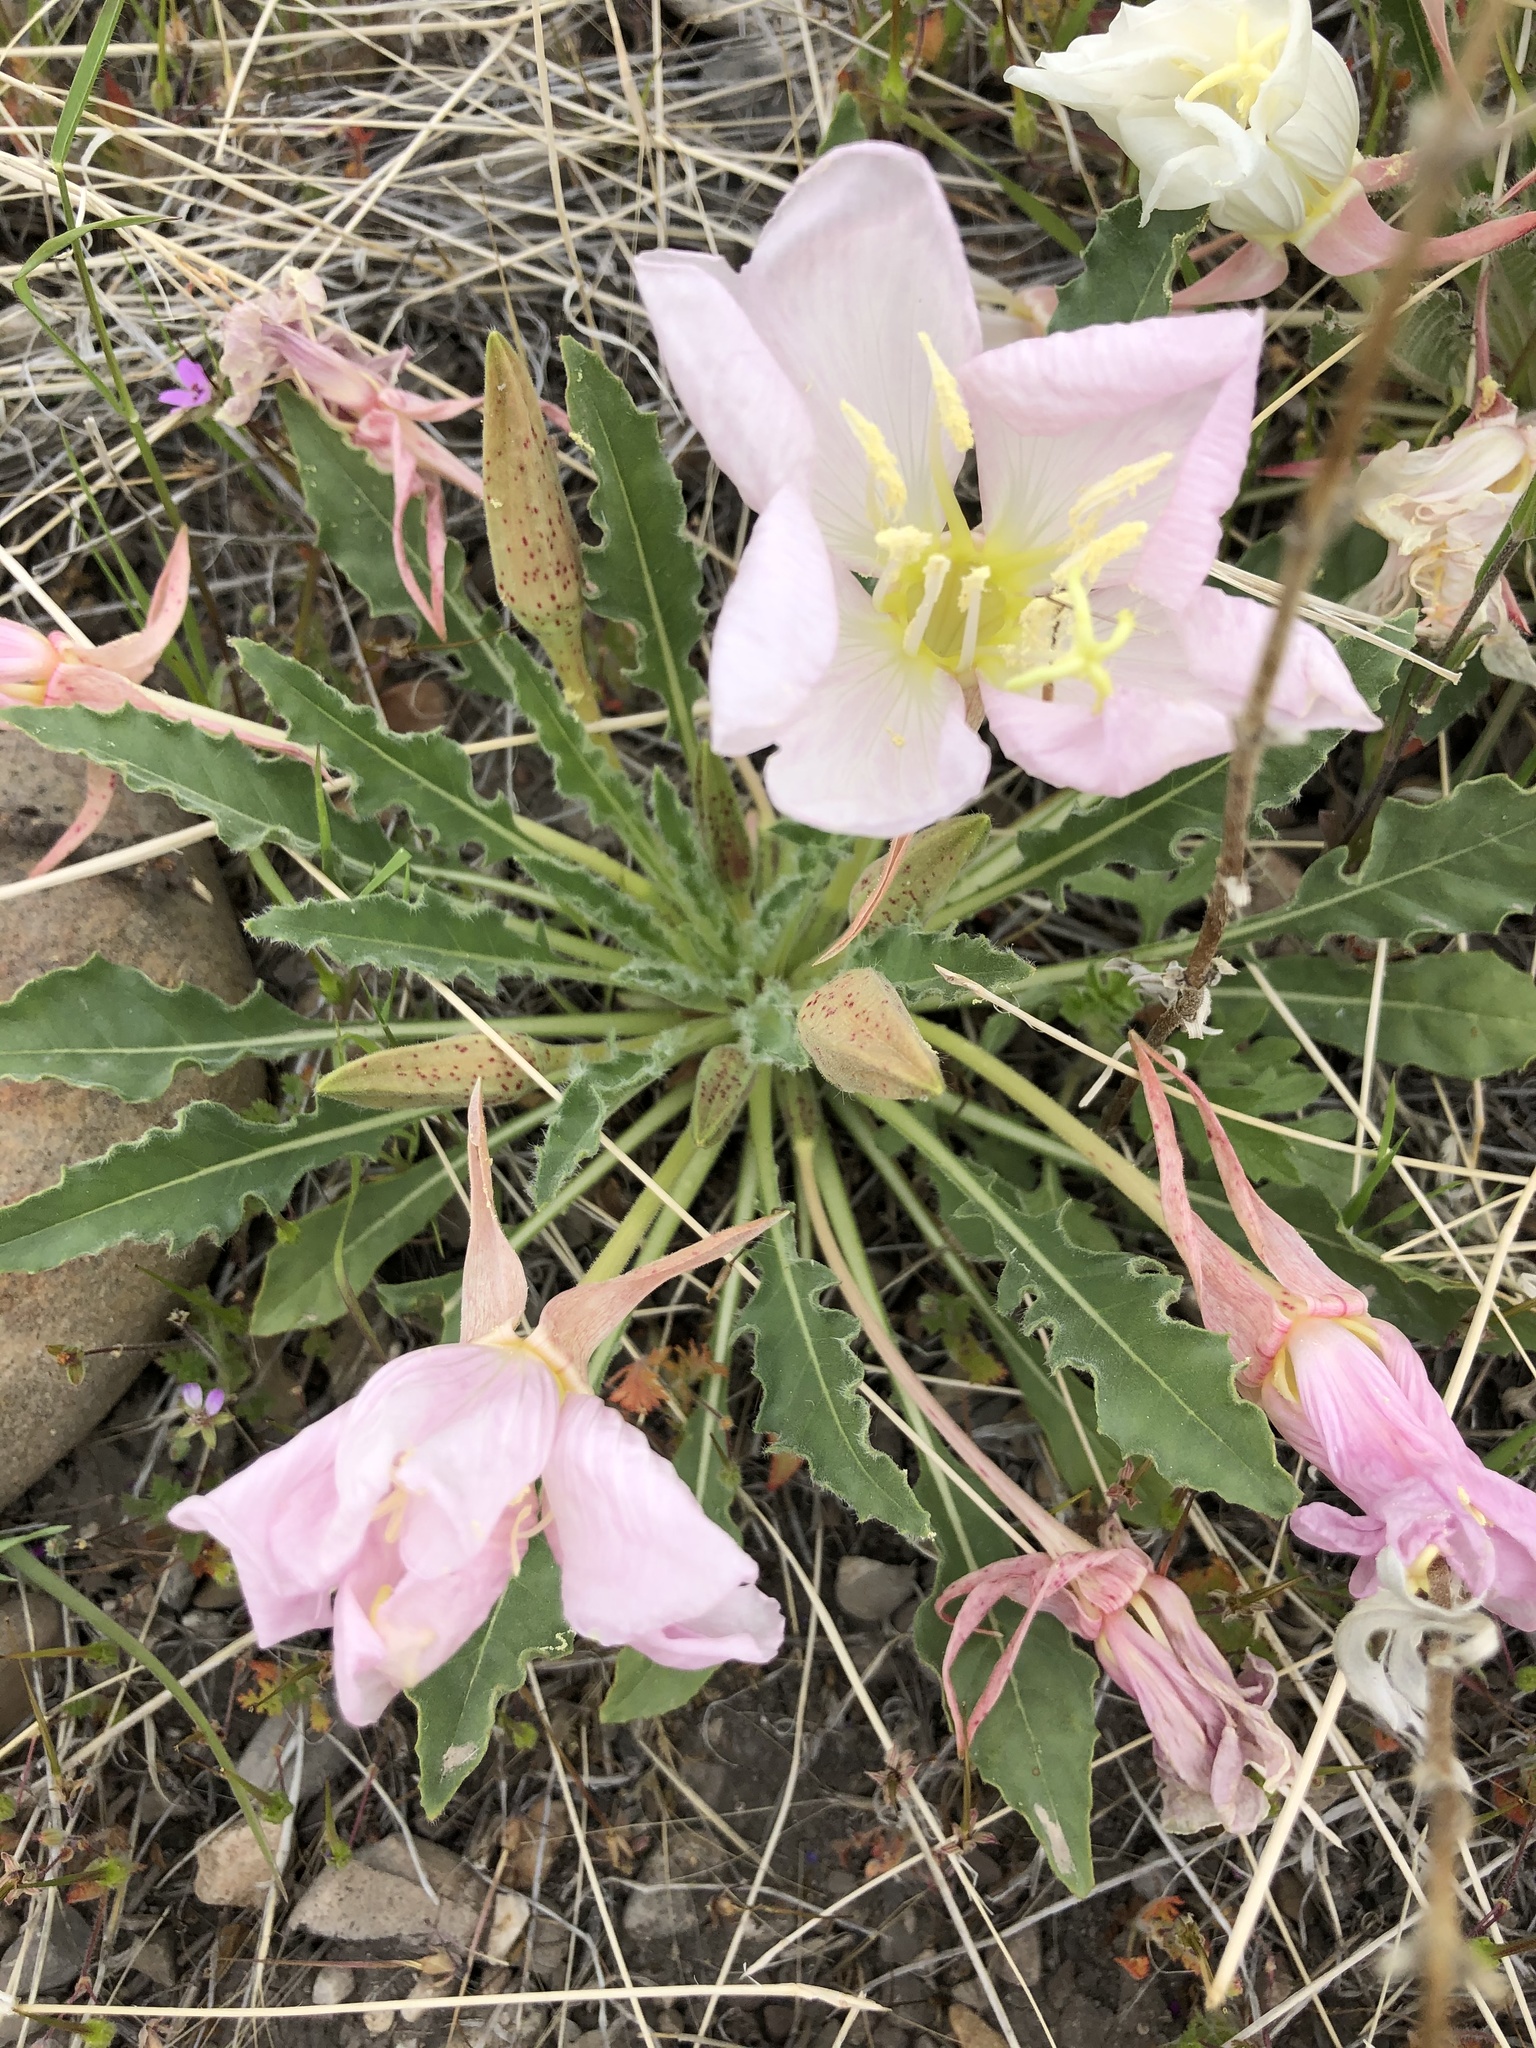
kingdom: Plantae
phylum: Tracheophyta
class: Magnoliopsida
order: Myrtales
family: Onagraceae
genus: Oenothera
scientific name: Oenothera cespitosa
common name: Tufted evening-primrose
